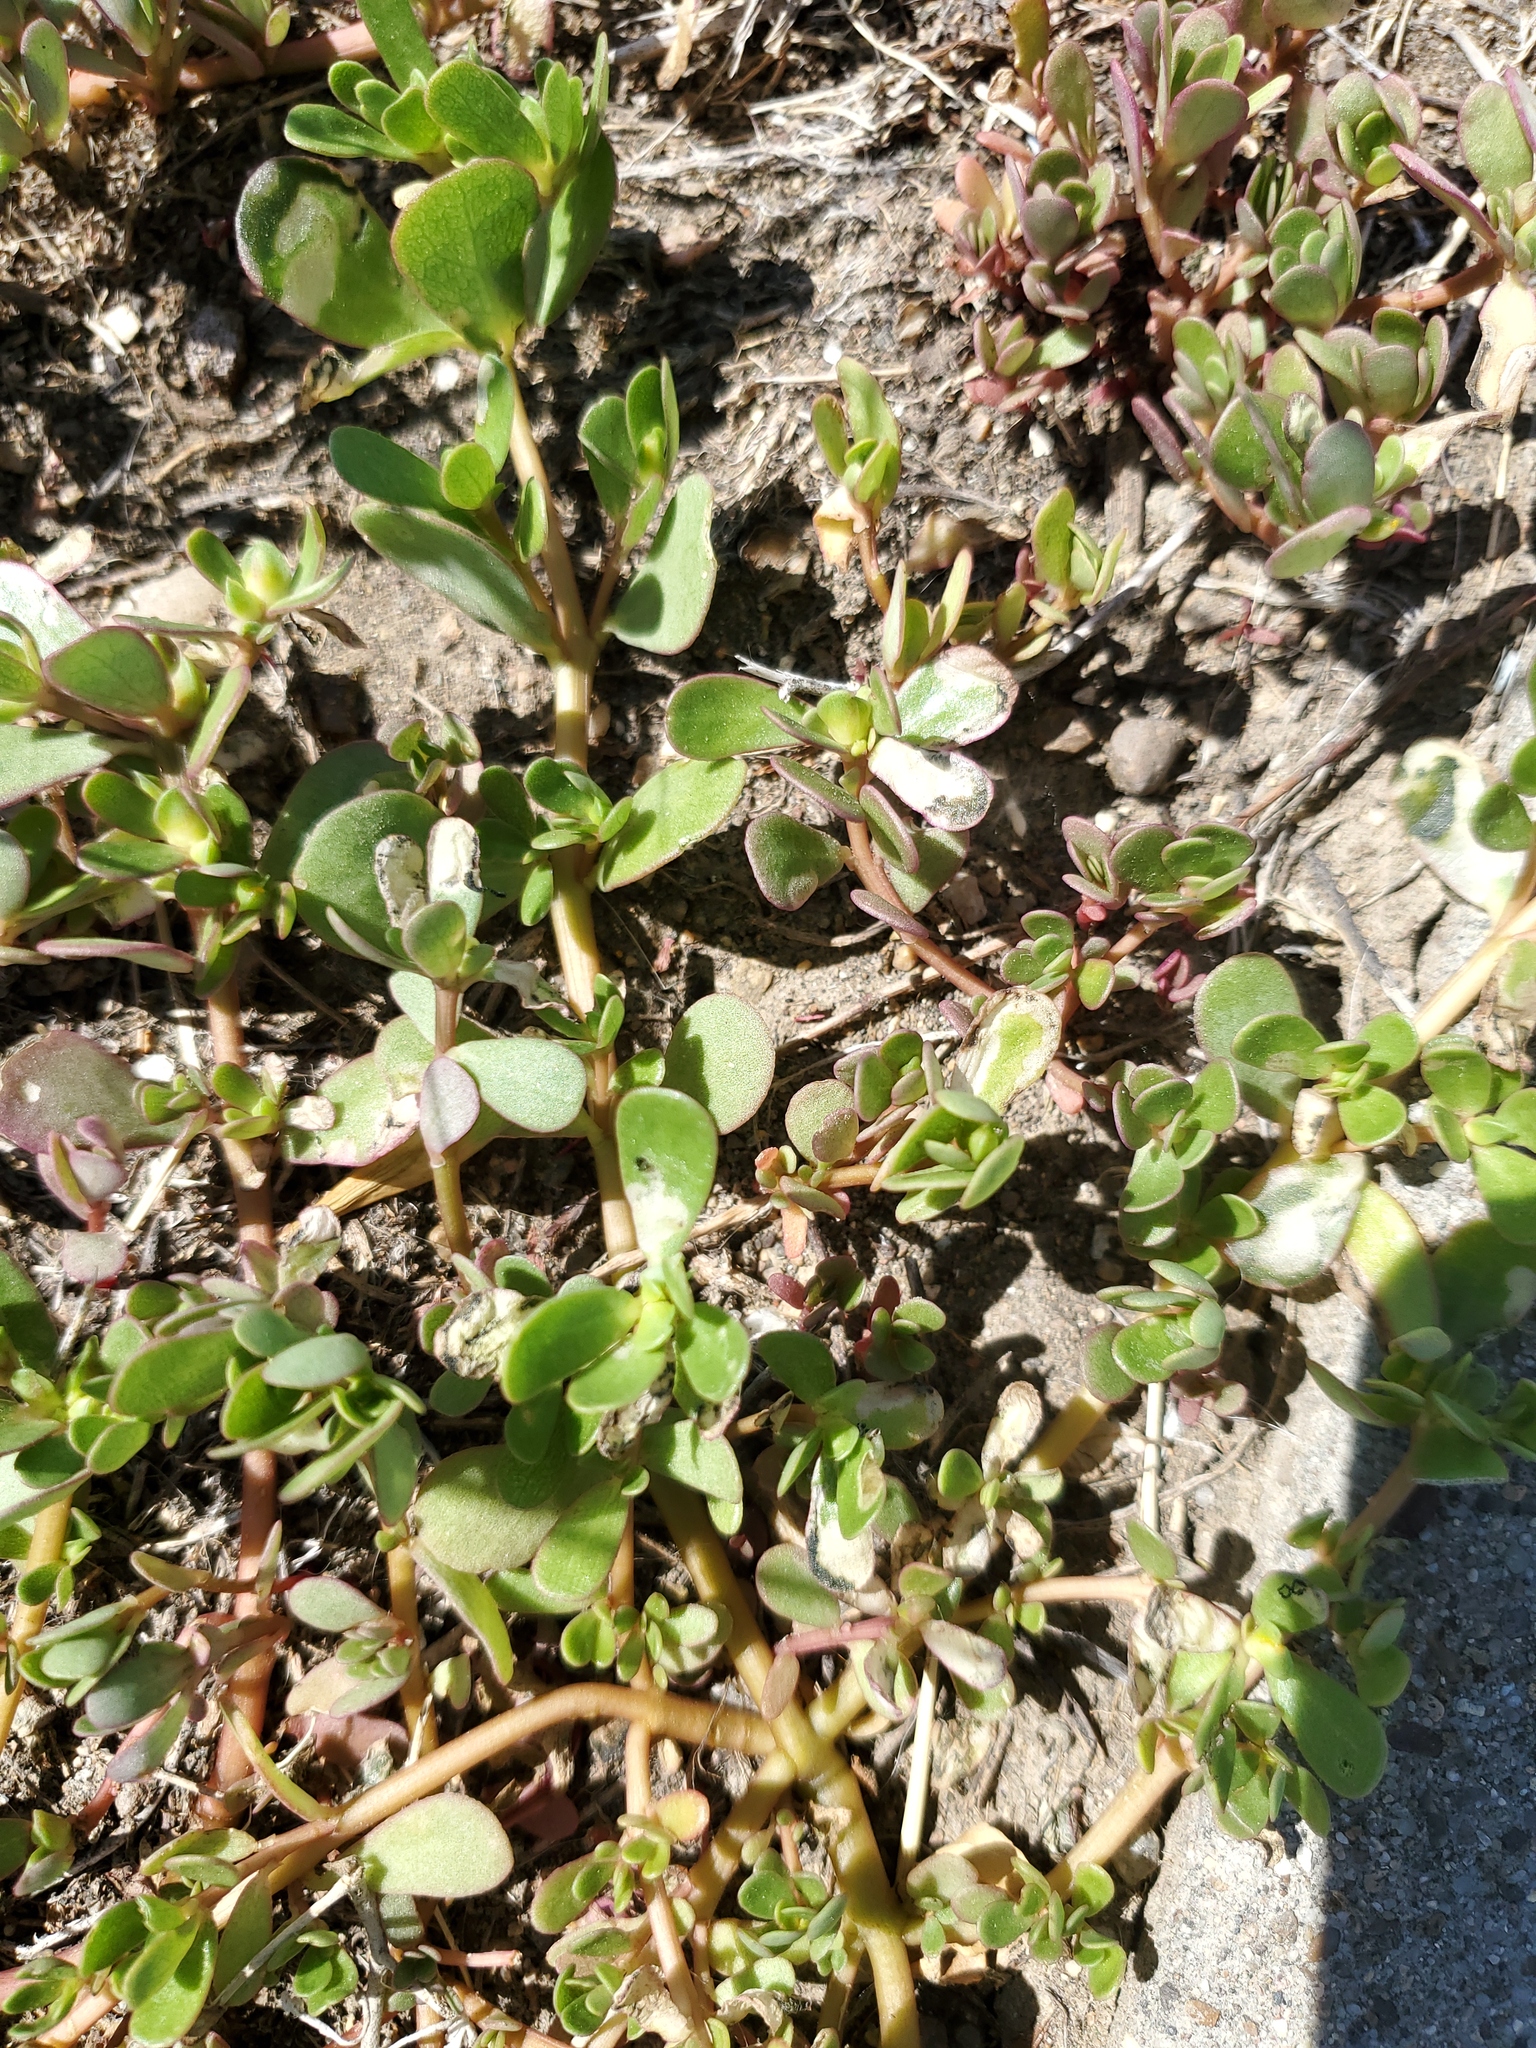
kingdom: Plantae
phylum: Tracheophyta
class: Magnoliopsida
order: Caryophyllales
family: Portulacaceae
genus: Portulaca
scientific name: Portulaca oleracea
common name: Common purslane
